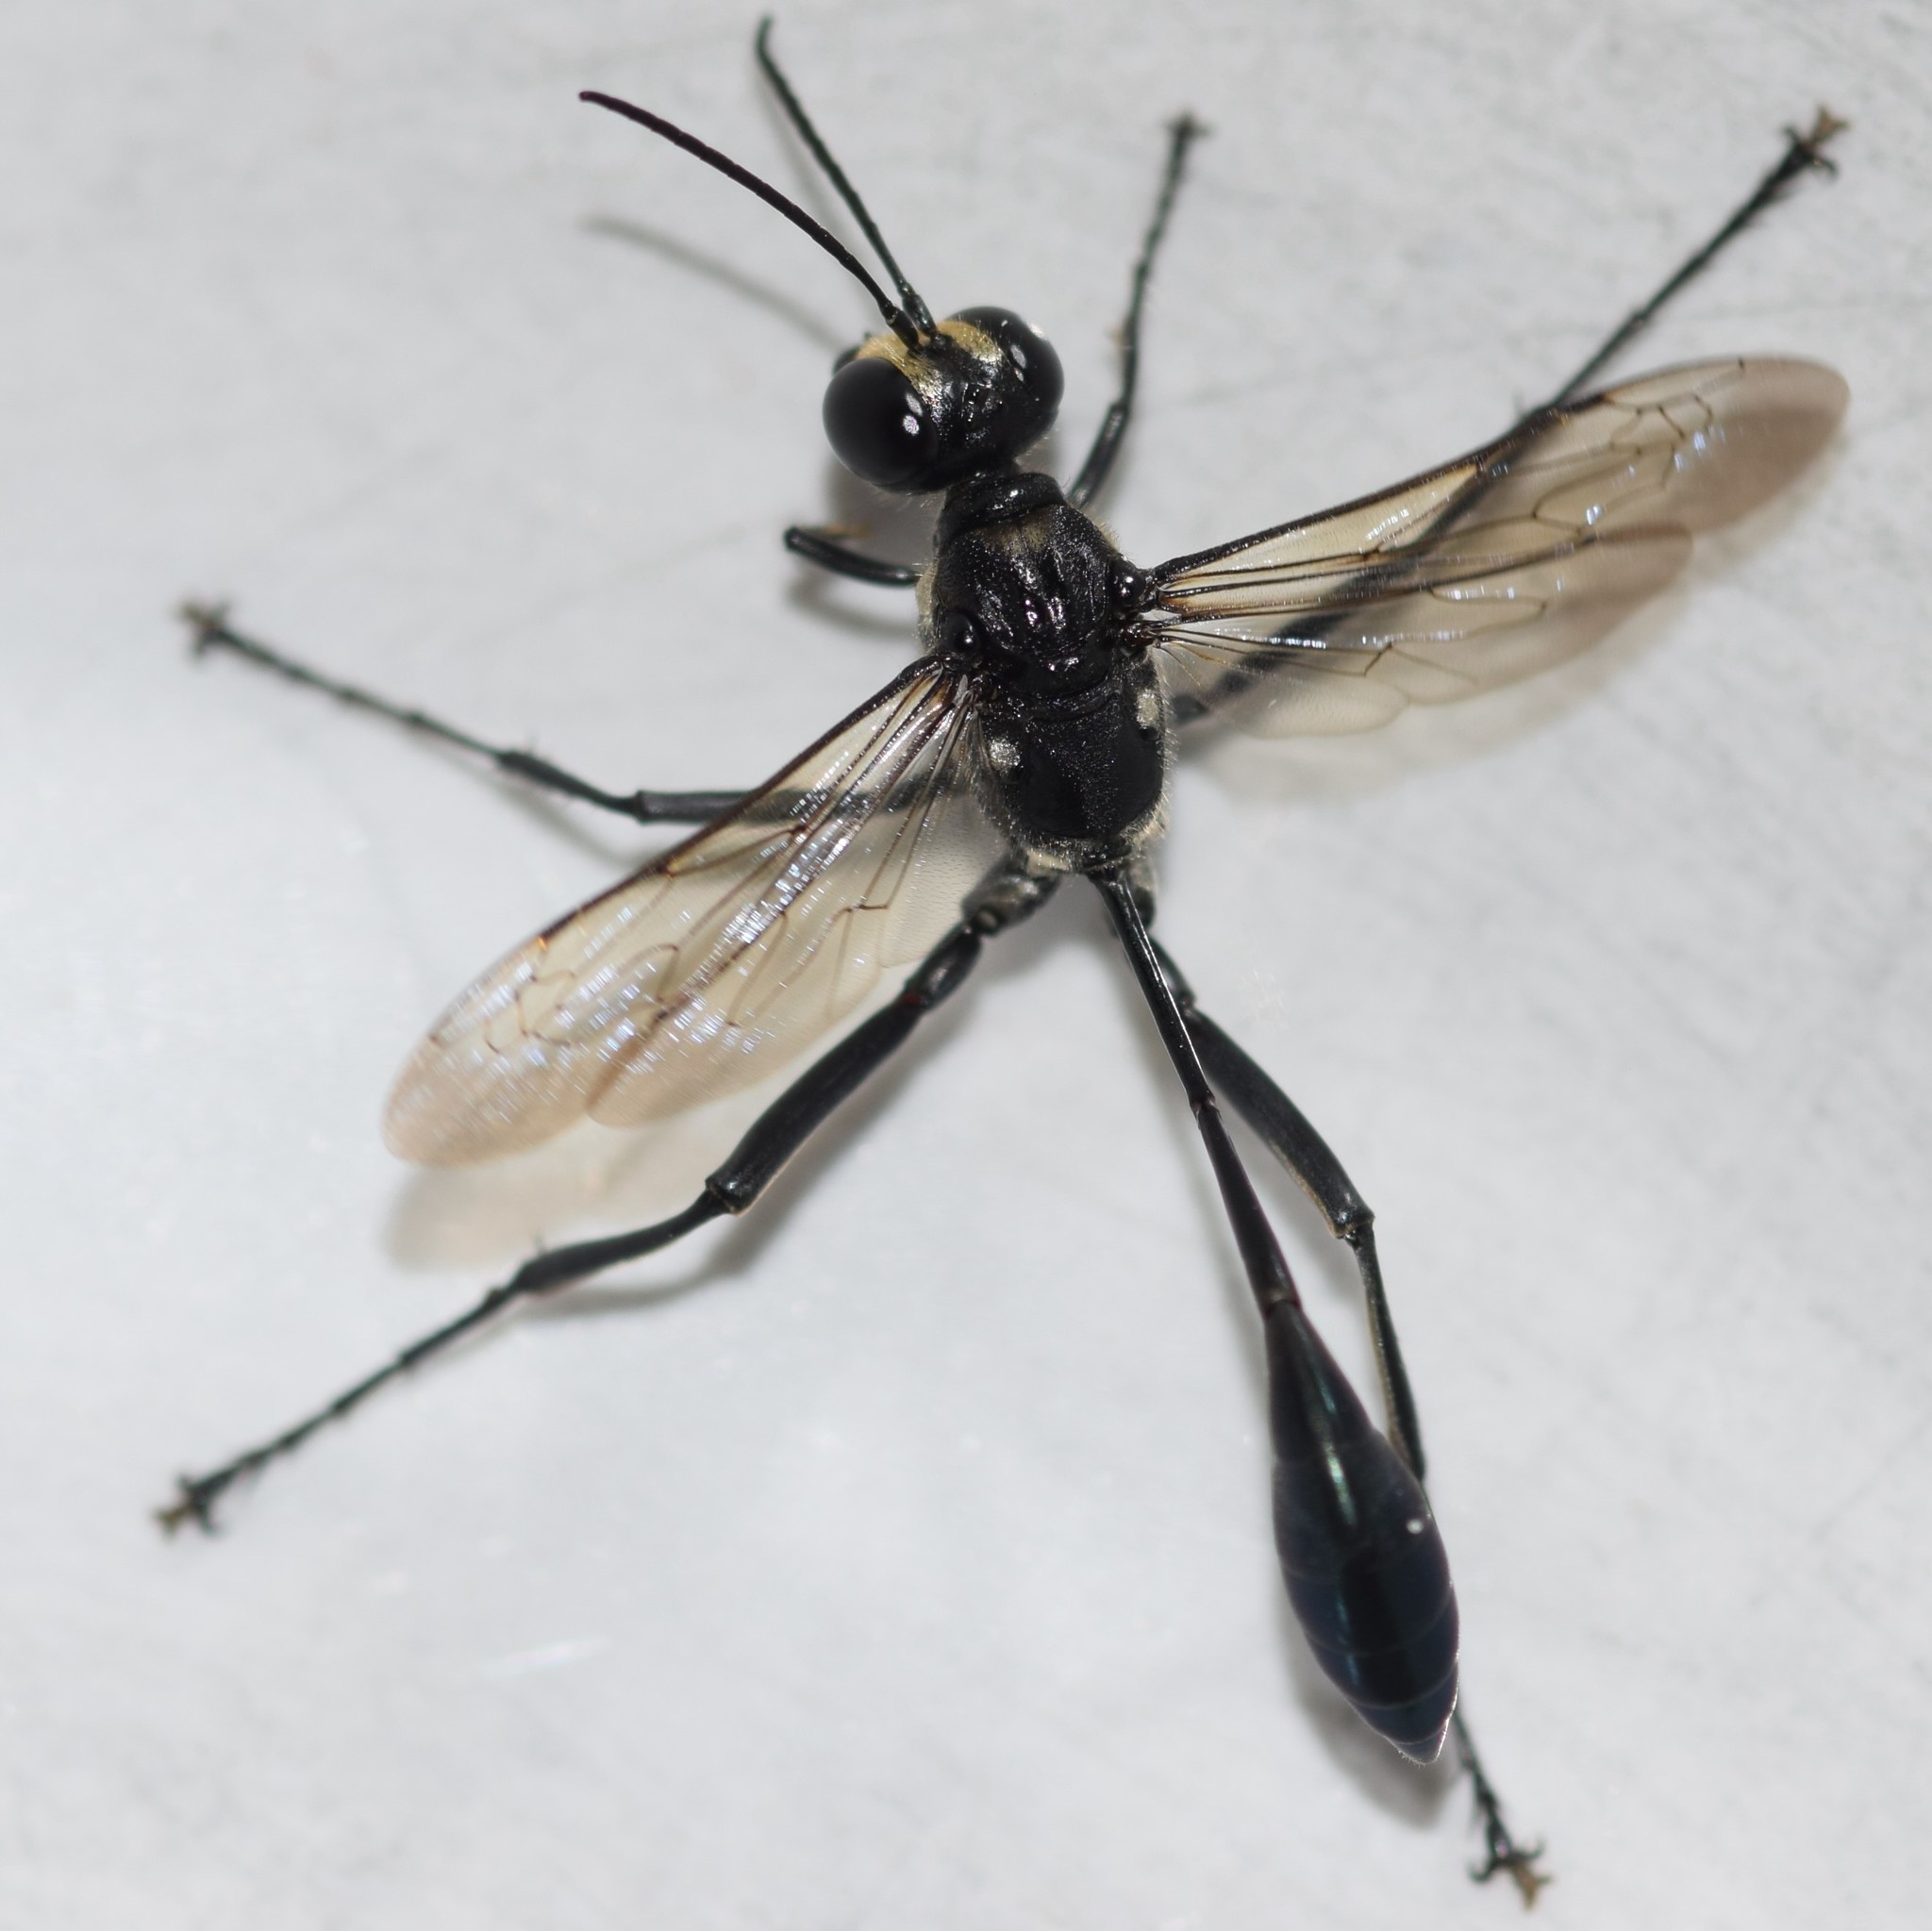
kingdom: Animalia
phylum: Arthropoda
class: Insecta
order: Hymenoptera
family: Sphecidae
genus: Eremnophila
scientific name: Eremnophila aureonotata
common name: Gold-marked thread-waisted wasp
